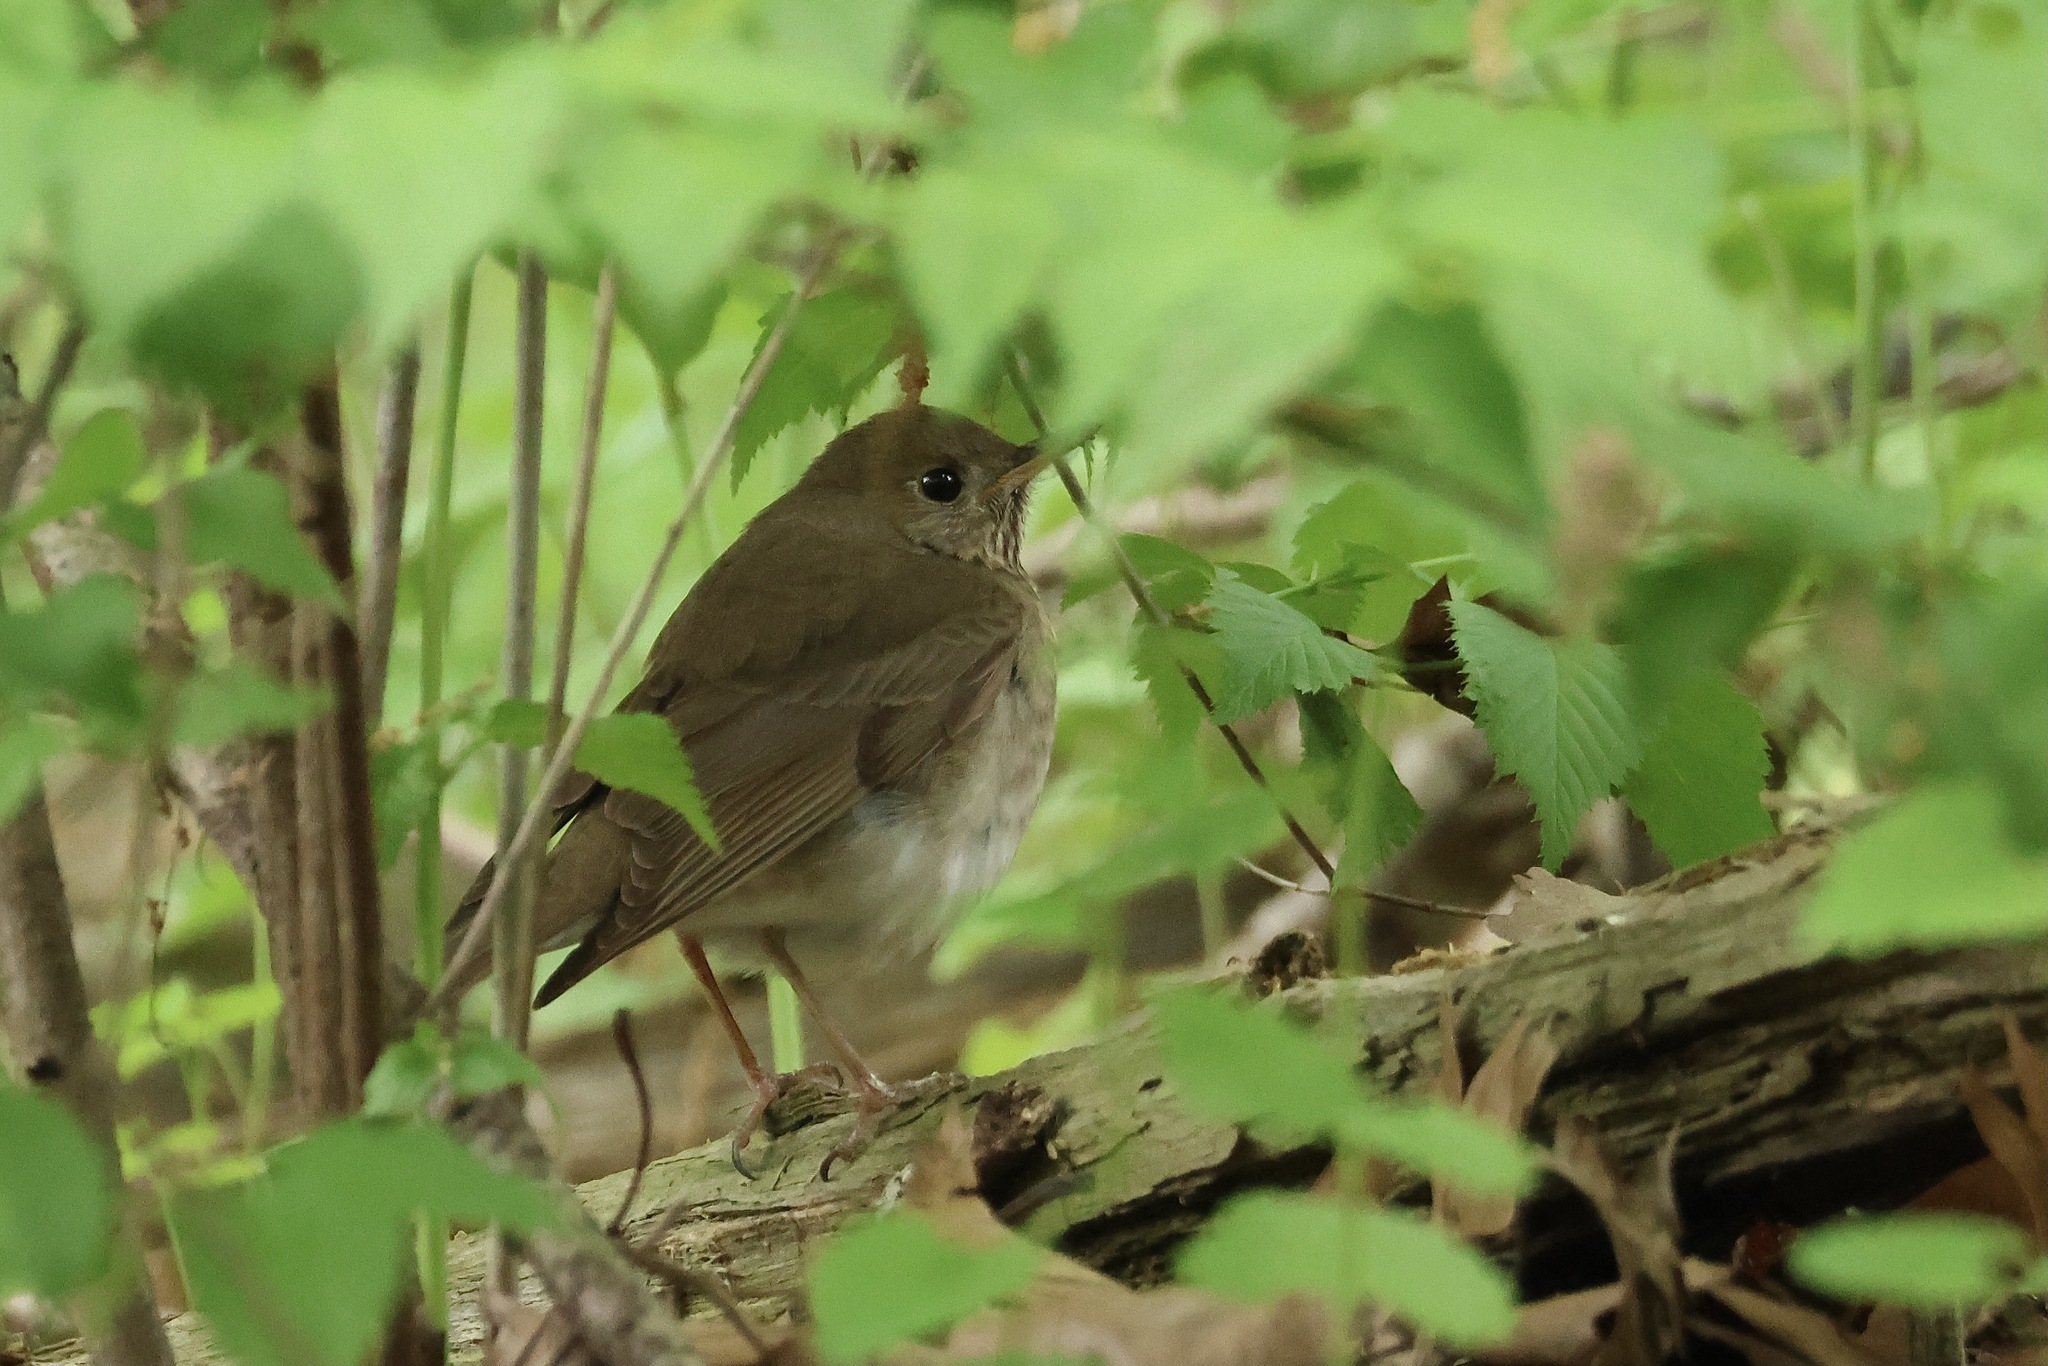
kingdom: Animalia
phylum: Chordata
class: Aves
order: Passeriformes
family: Turdidae
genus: Catharus
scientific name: Catharus minimus
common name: Grey-cheeked thrush
